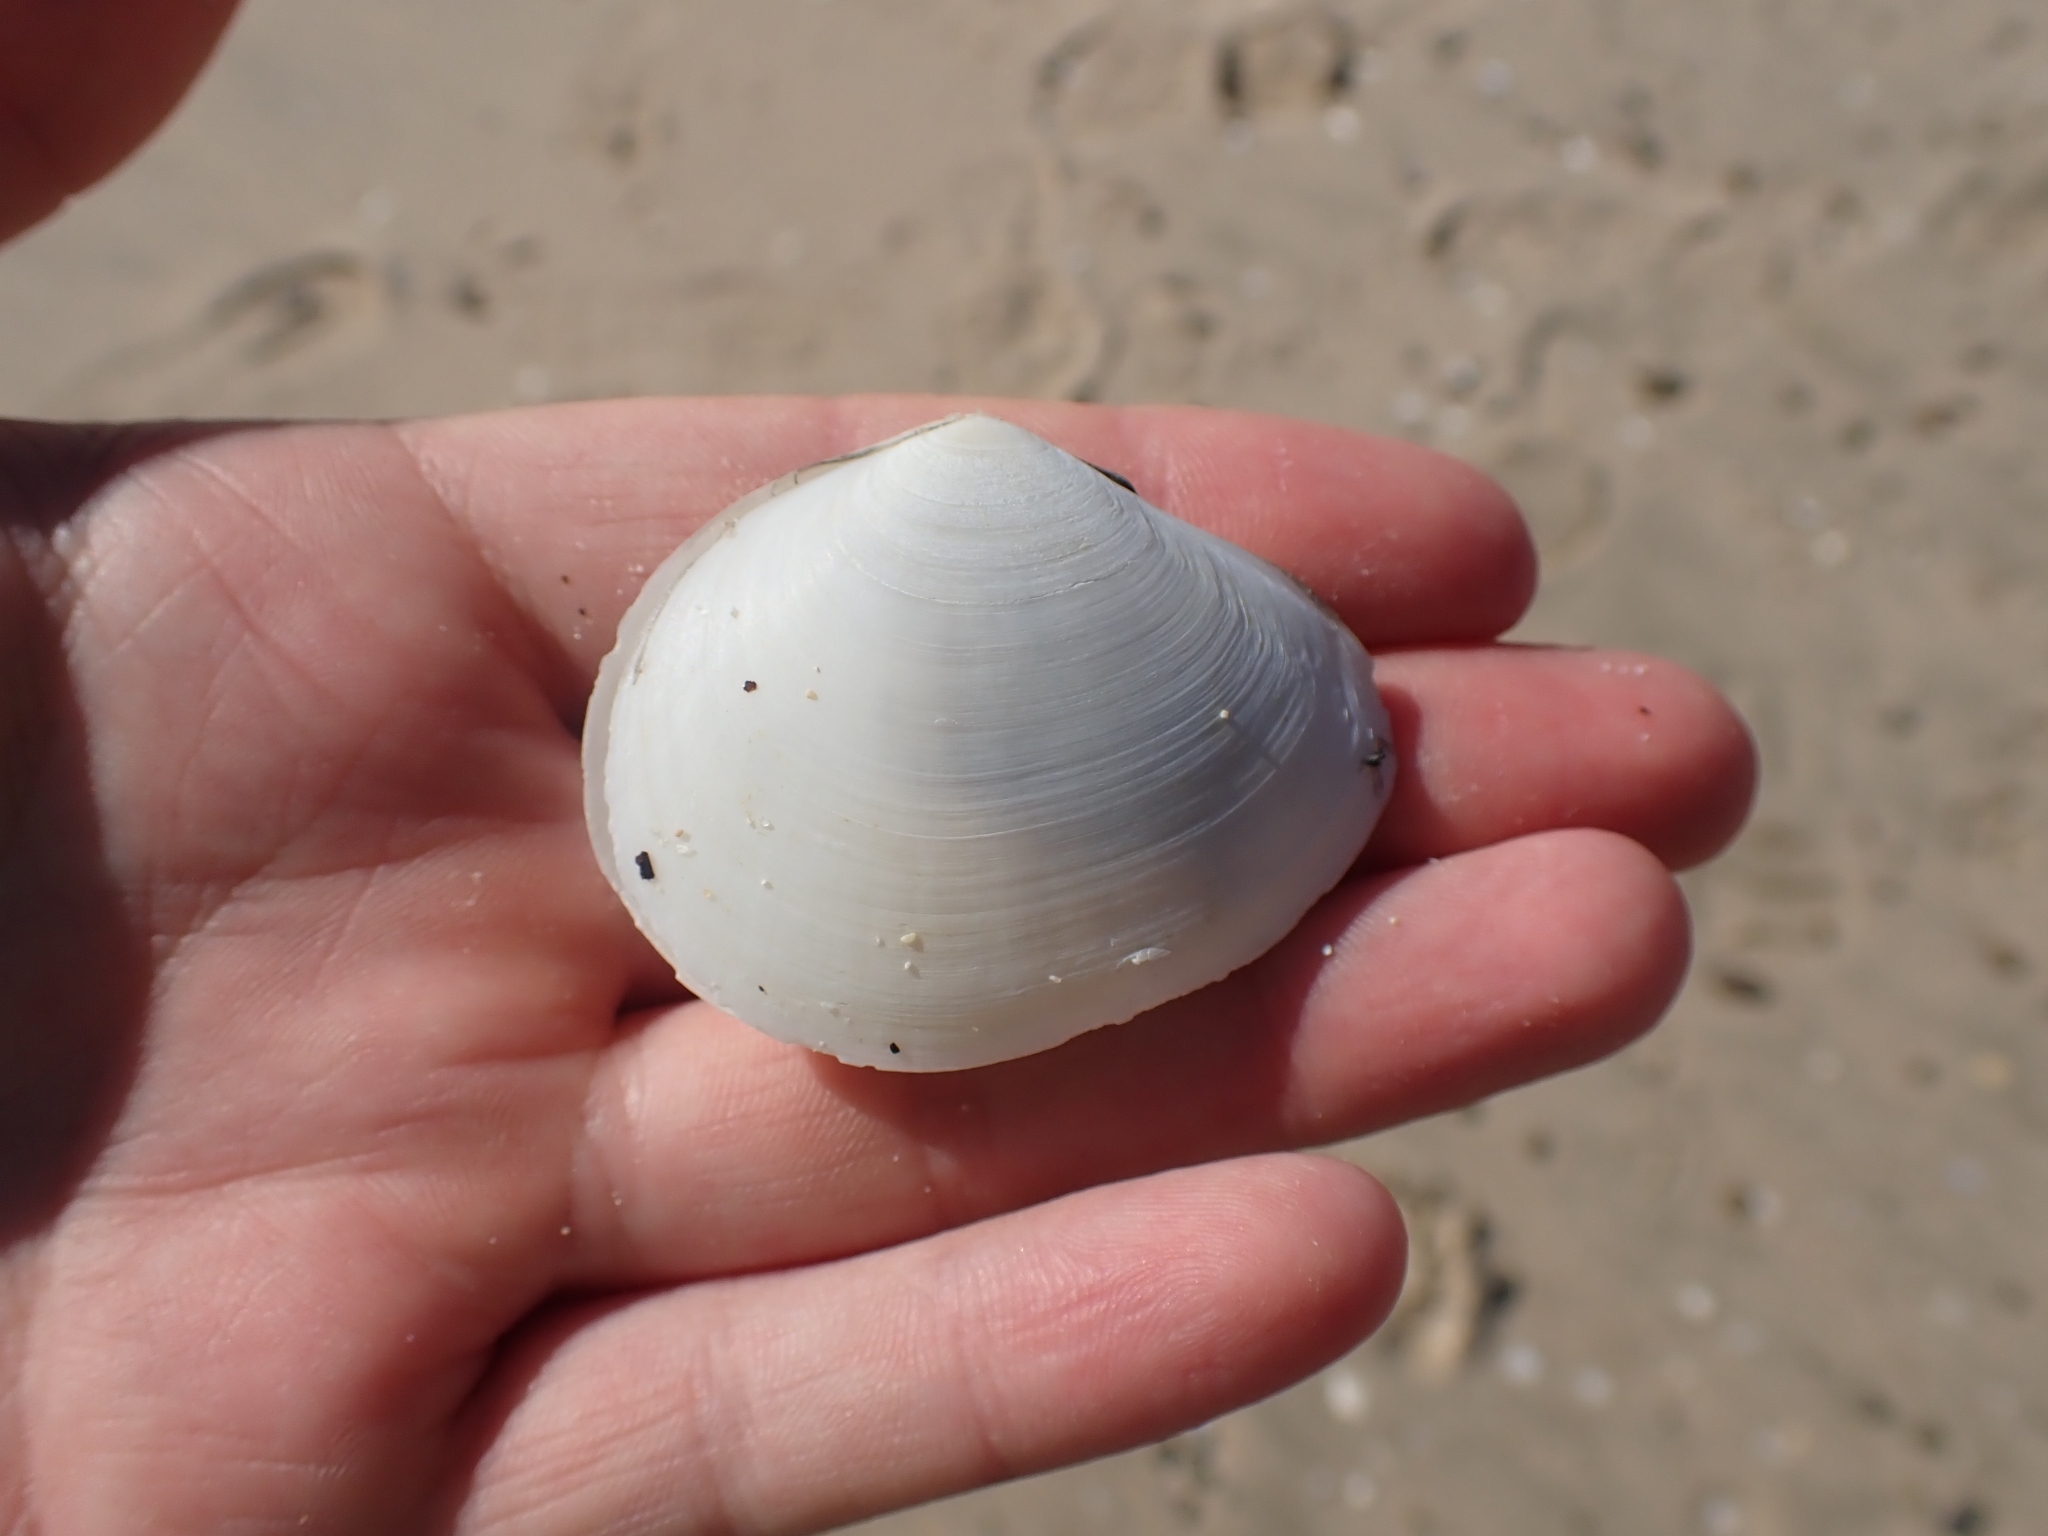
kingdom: Animalia
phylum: Mollusca
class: Bivalvia
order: Cardiida
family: Tellinidae
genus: Macomona
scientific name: Macomona liliana
